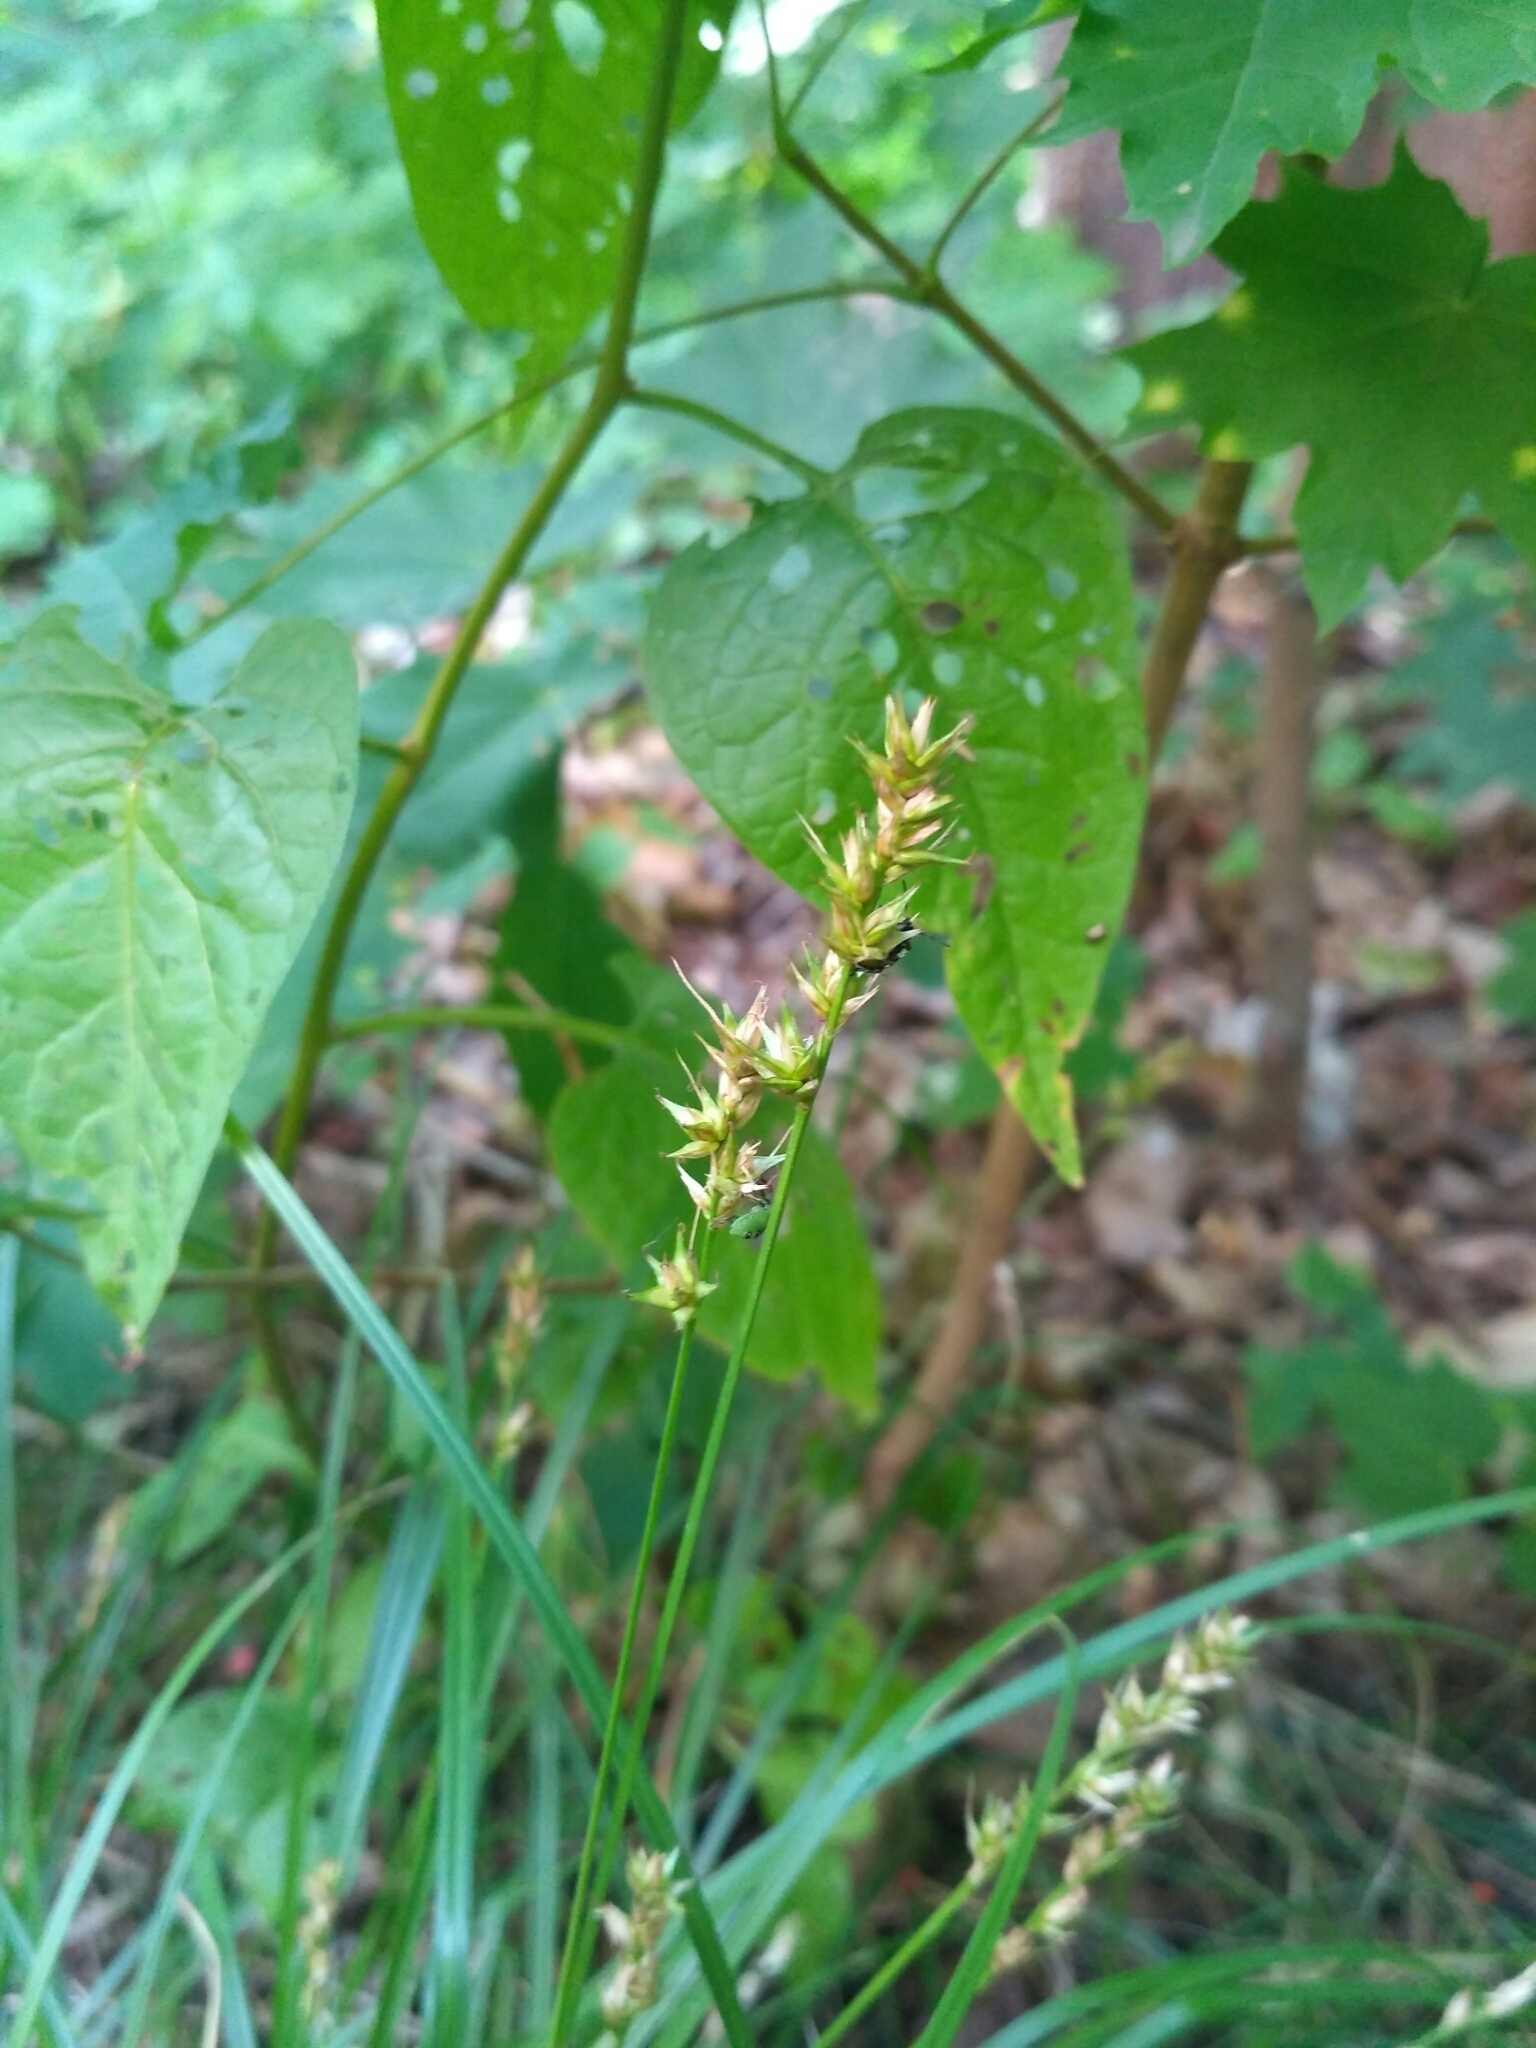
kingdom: Plantae
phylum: Tracheophyta
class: Liliopsida
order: Poales
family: Cyperaceae
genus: Carex
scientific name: Carex spicata
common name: Spiked sedge
